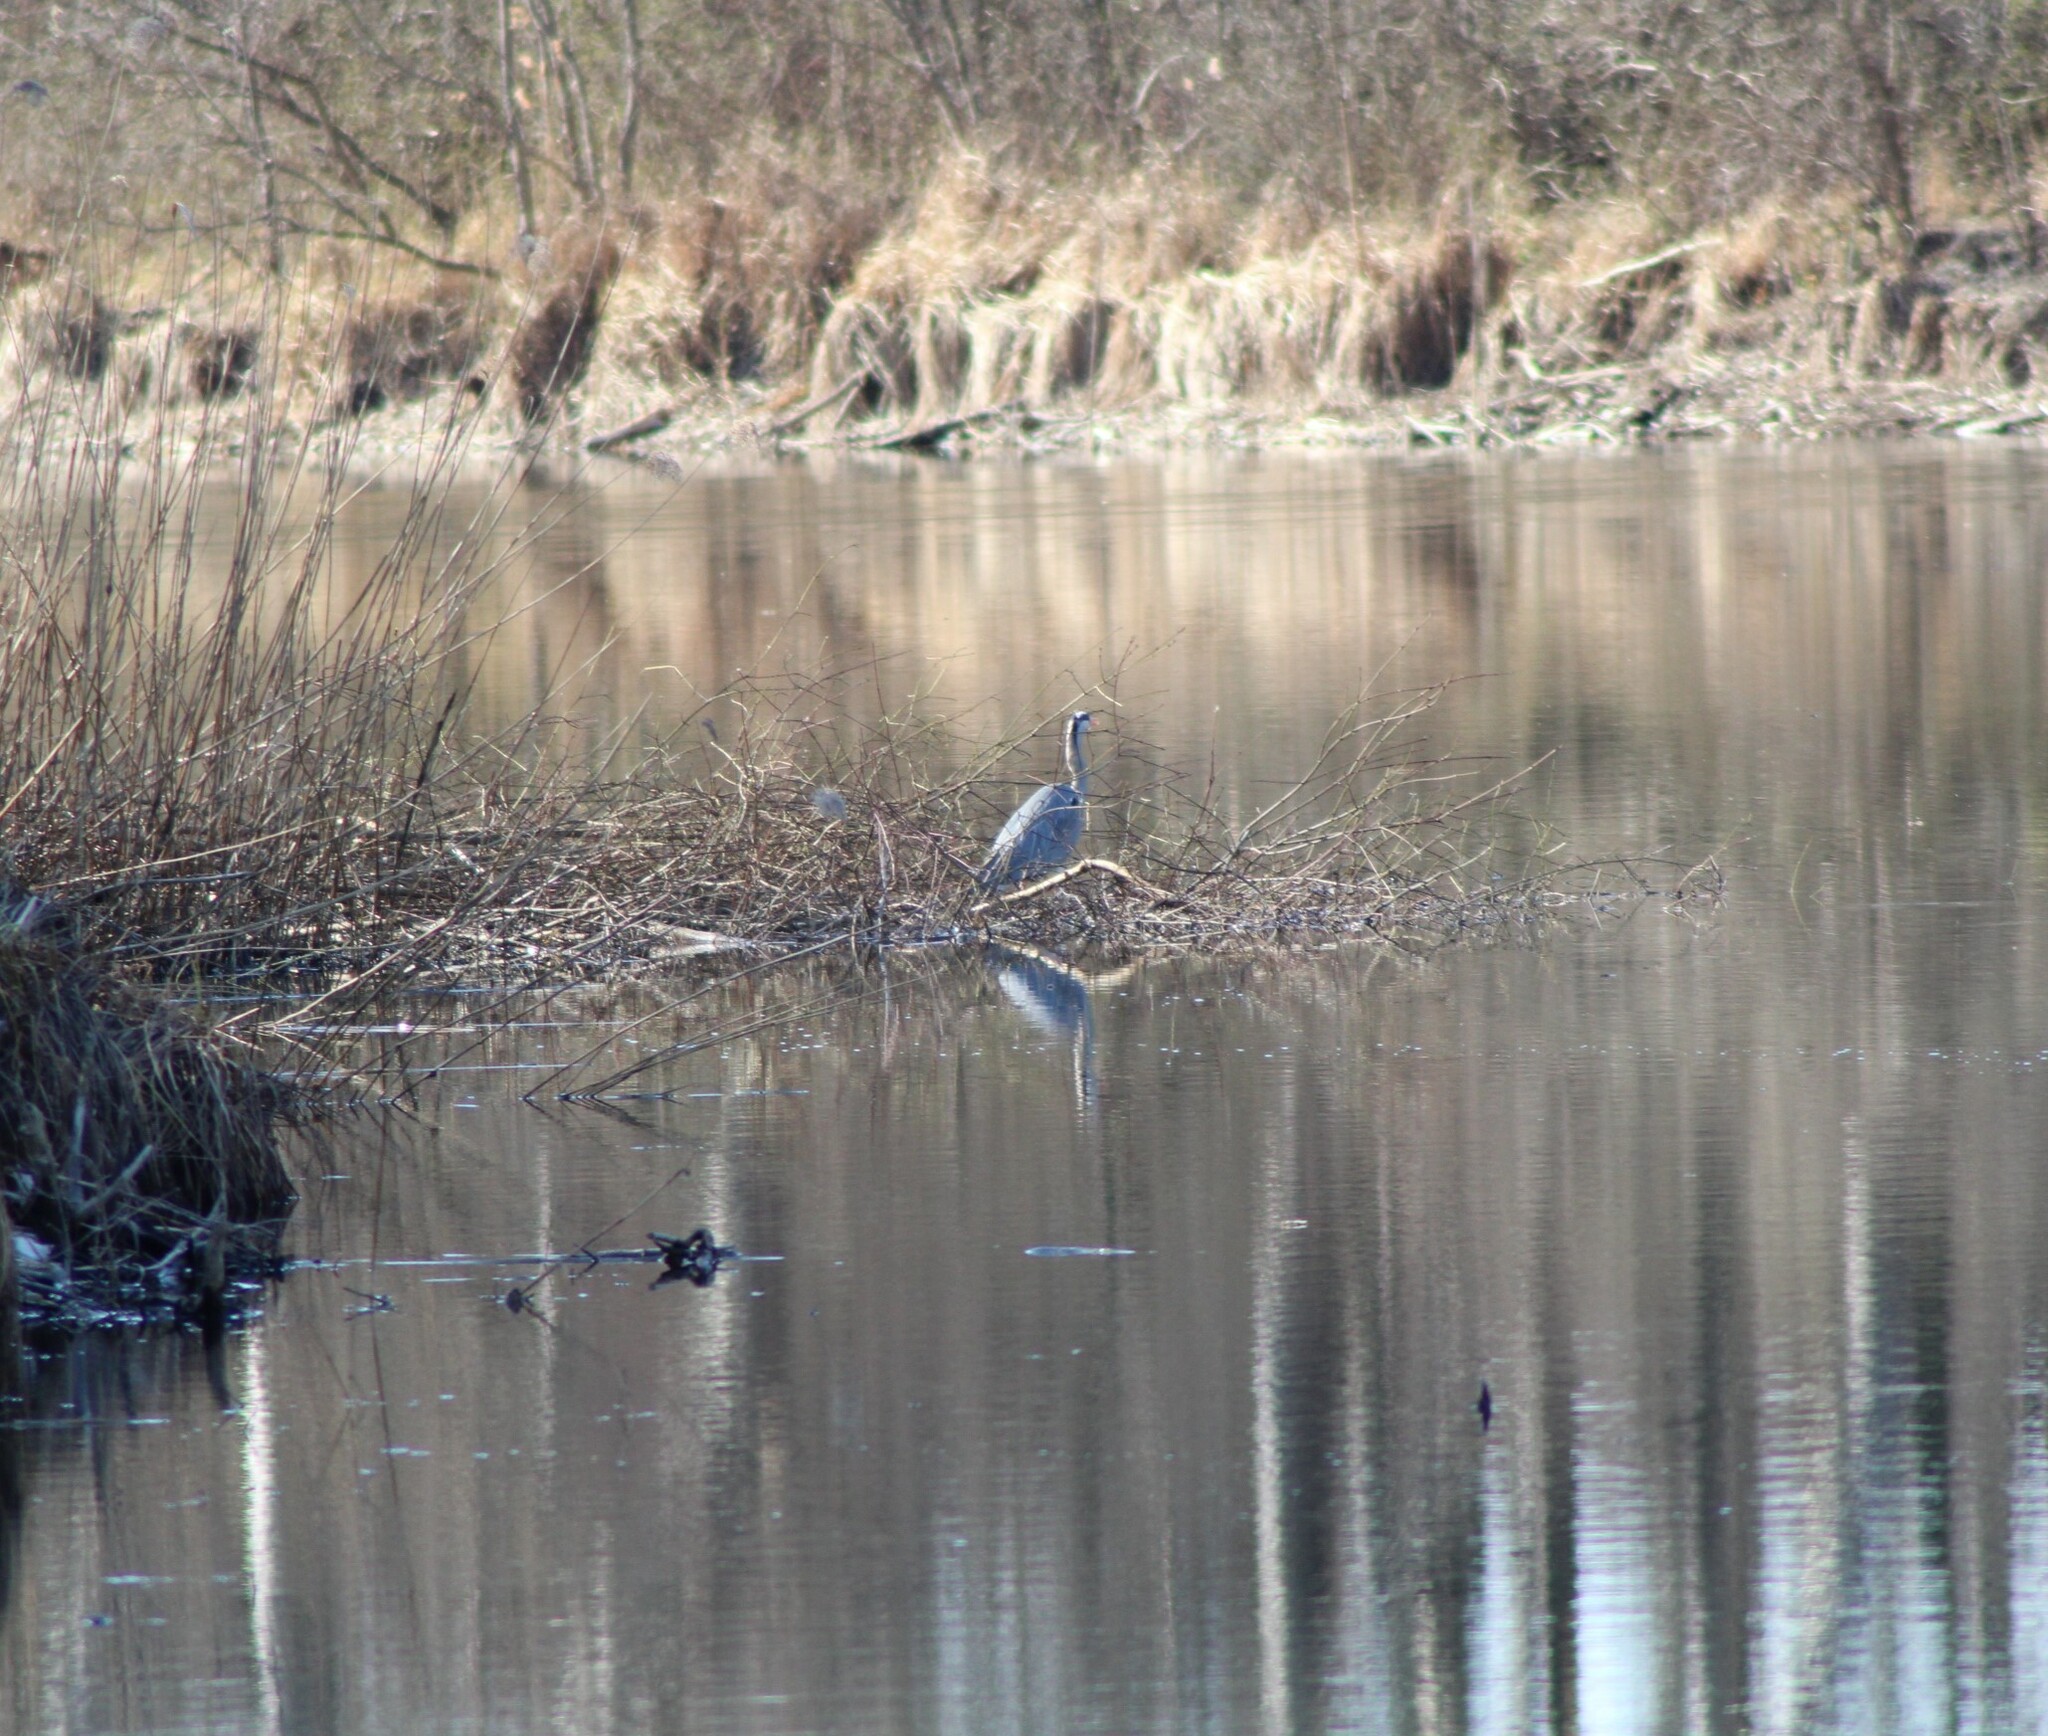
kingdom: Animalia
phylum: Chordata
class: Aves
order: Pelecaniformes
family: Ardeidae
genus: Ardea
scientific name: Ardea cinerea
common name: Grey heron
